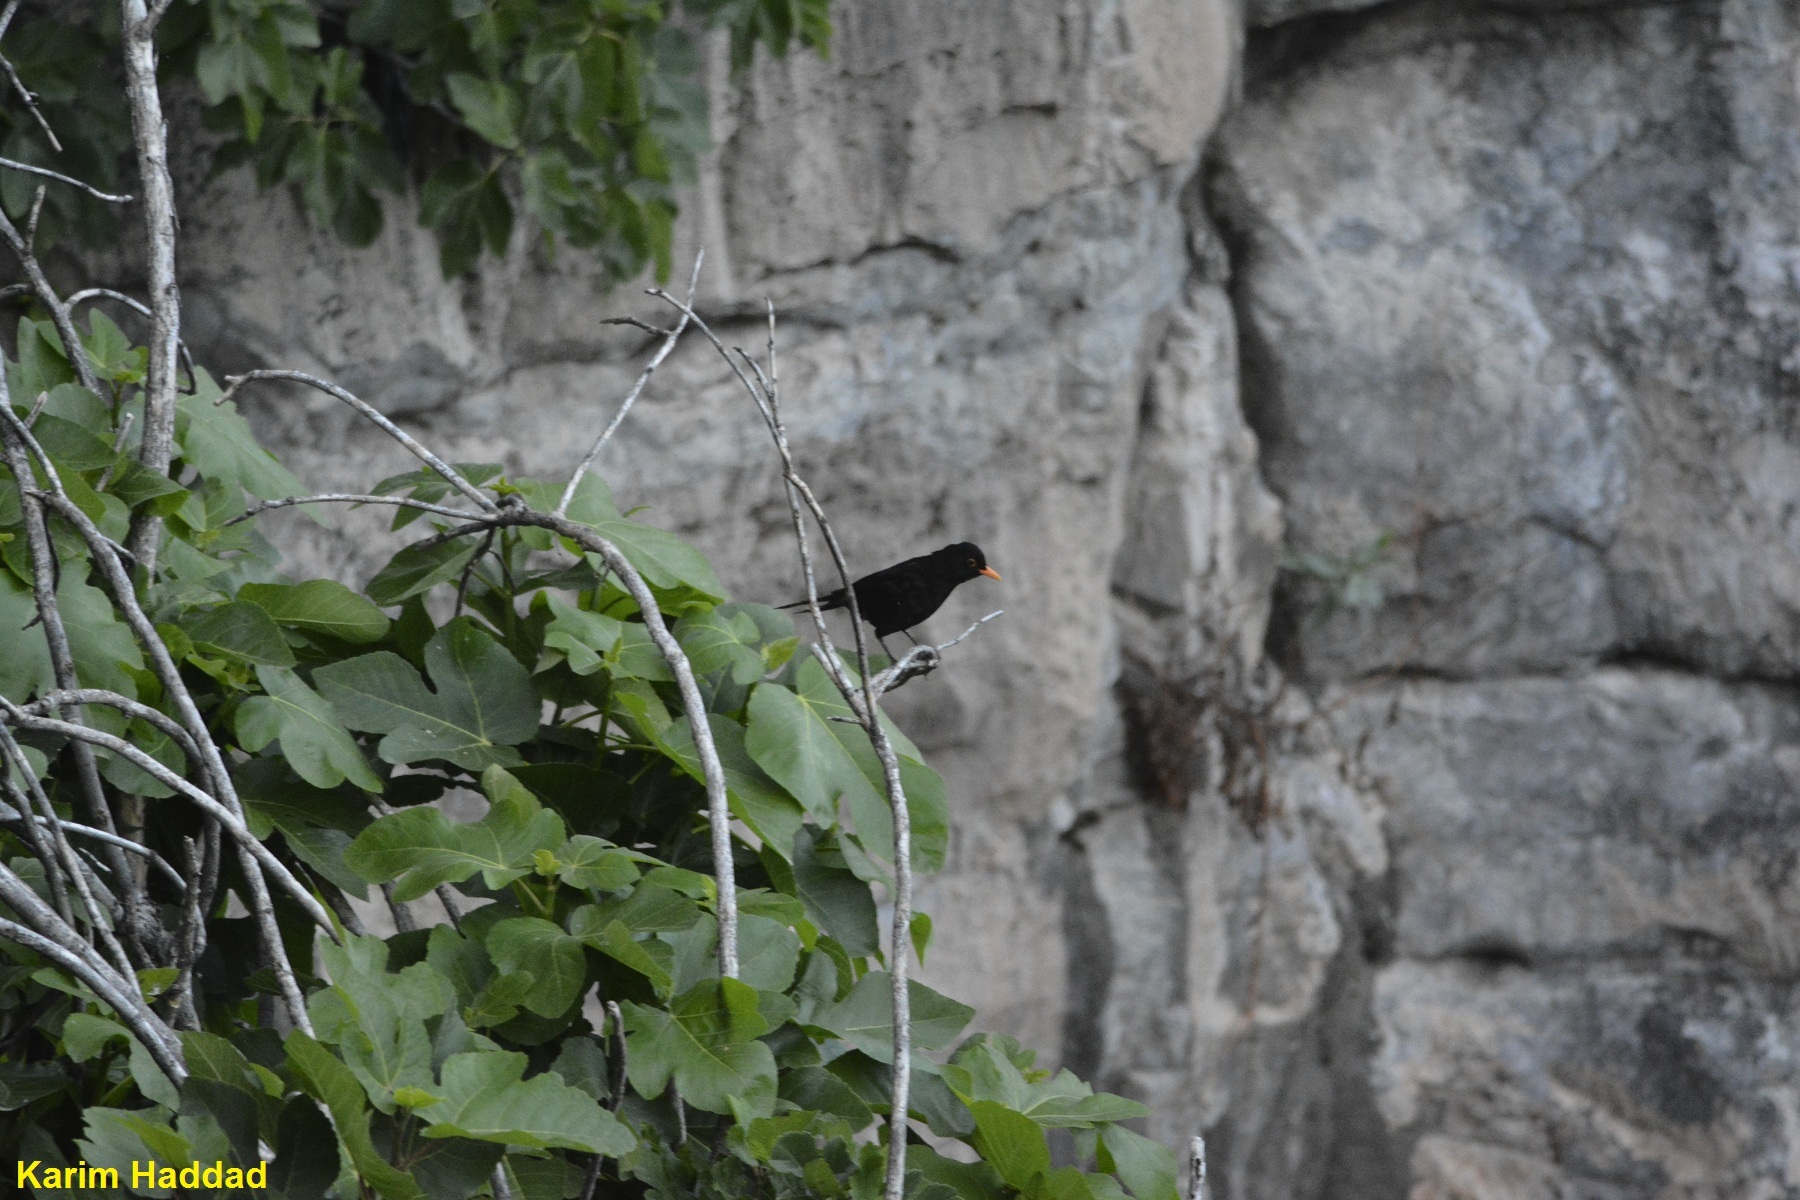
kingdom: Animalia
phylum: Chordata
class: Aves
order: Passeriformes
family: Turdidae
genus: Turdus
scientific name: Turdus merula
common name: Common blackbird
